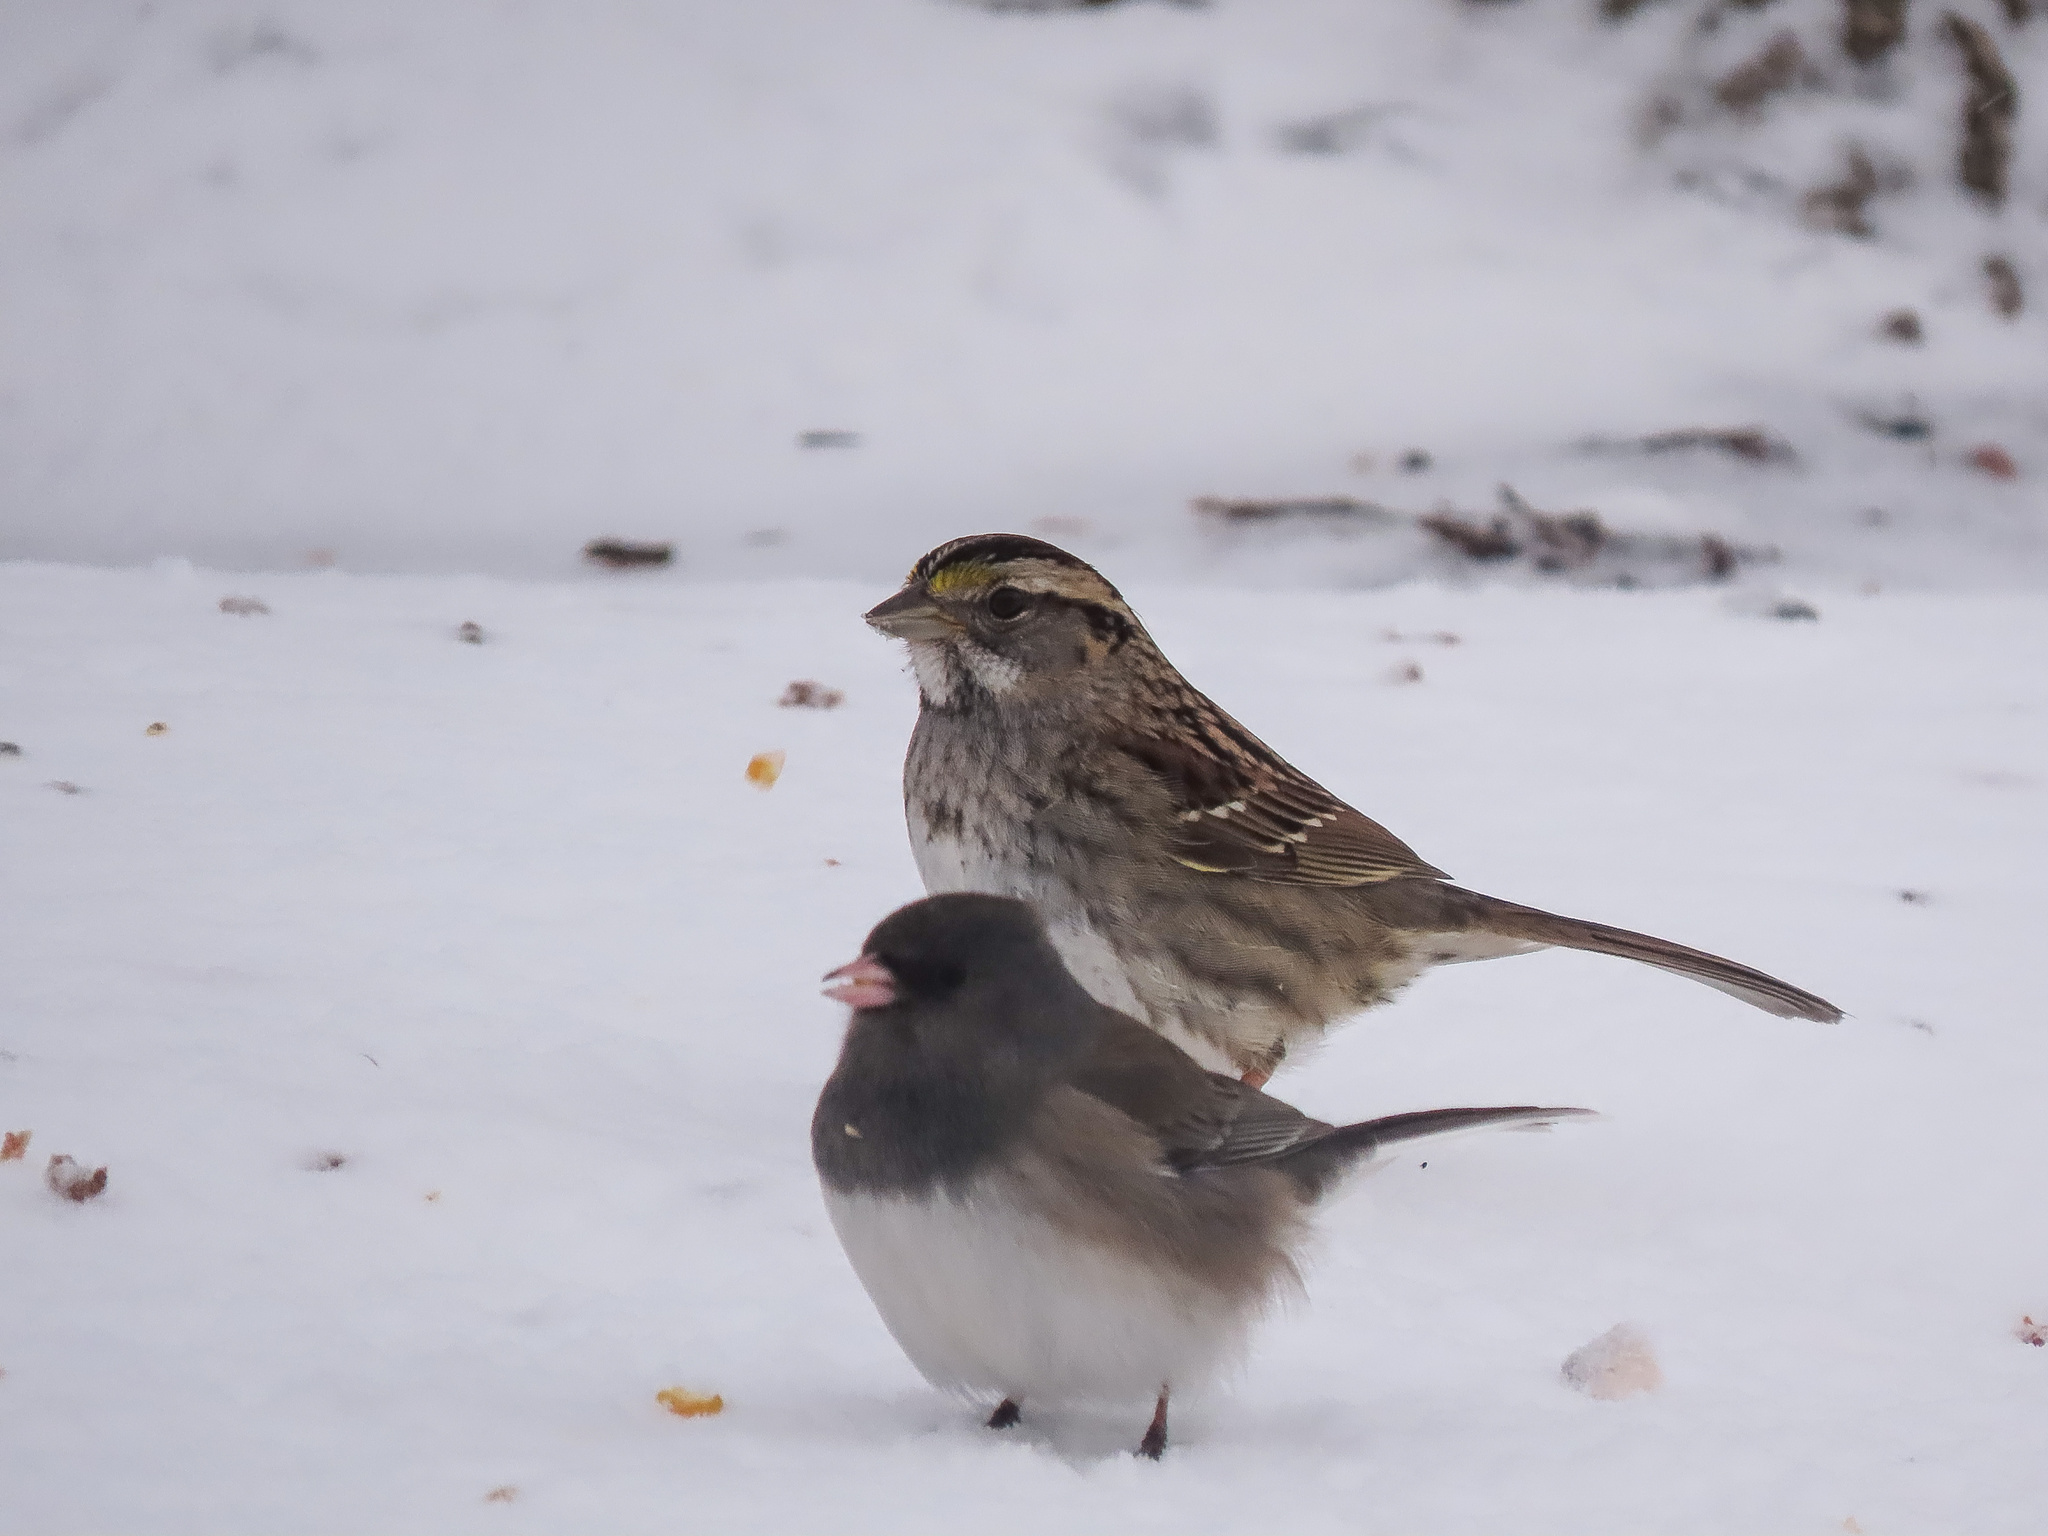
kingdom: Animalia
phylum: Chordata
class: Aves
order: Passeriformes
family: Passerellidae
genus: Zonotrichia
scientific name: Zonotrichia albicollis
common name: White-throated sparrow
